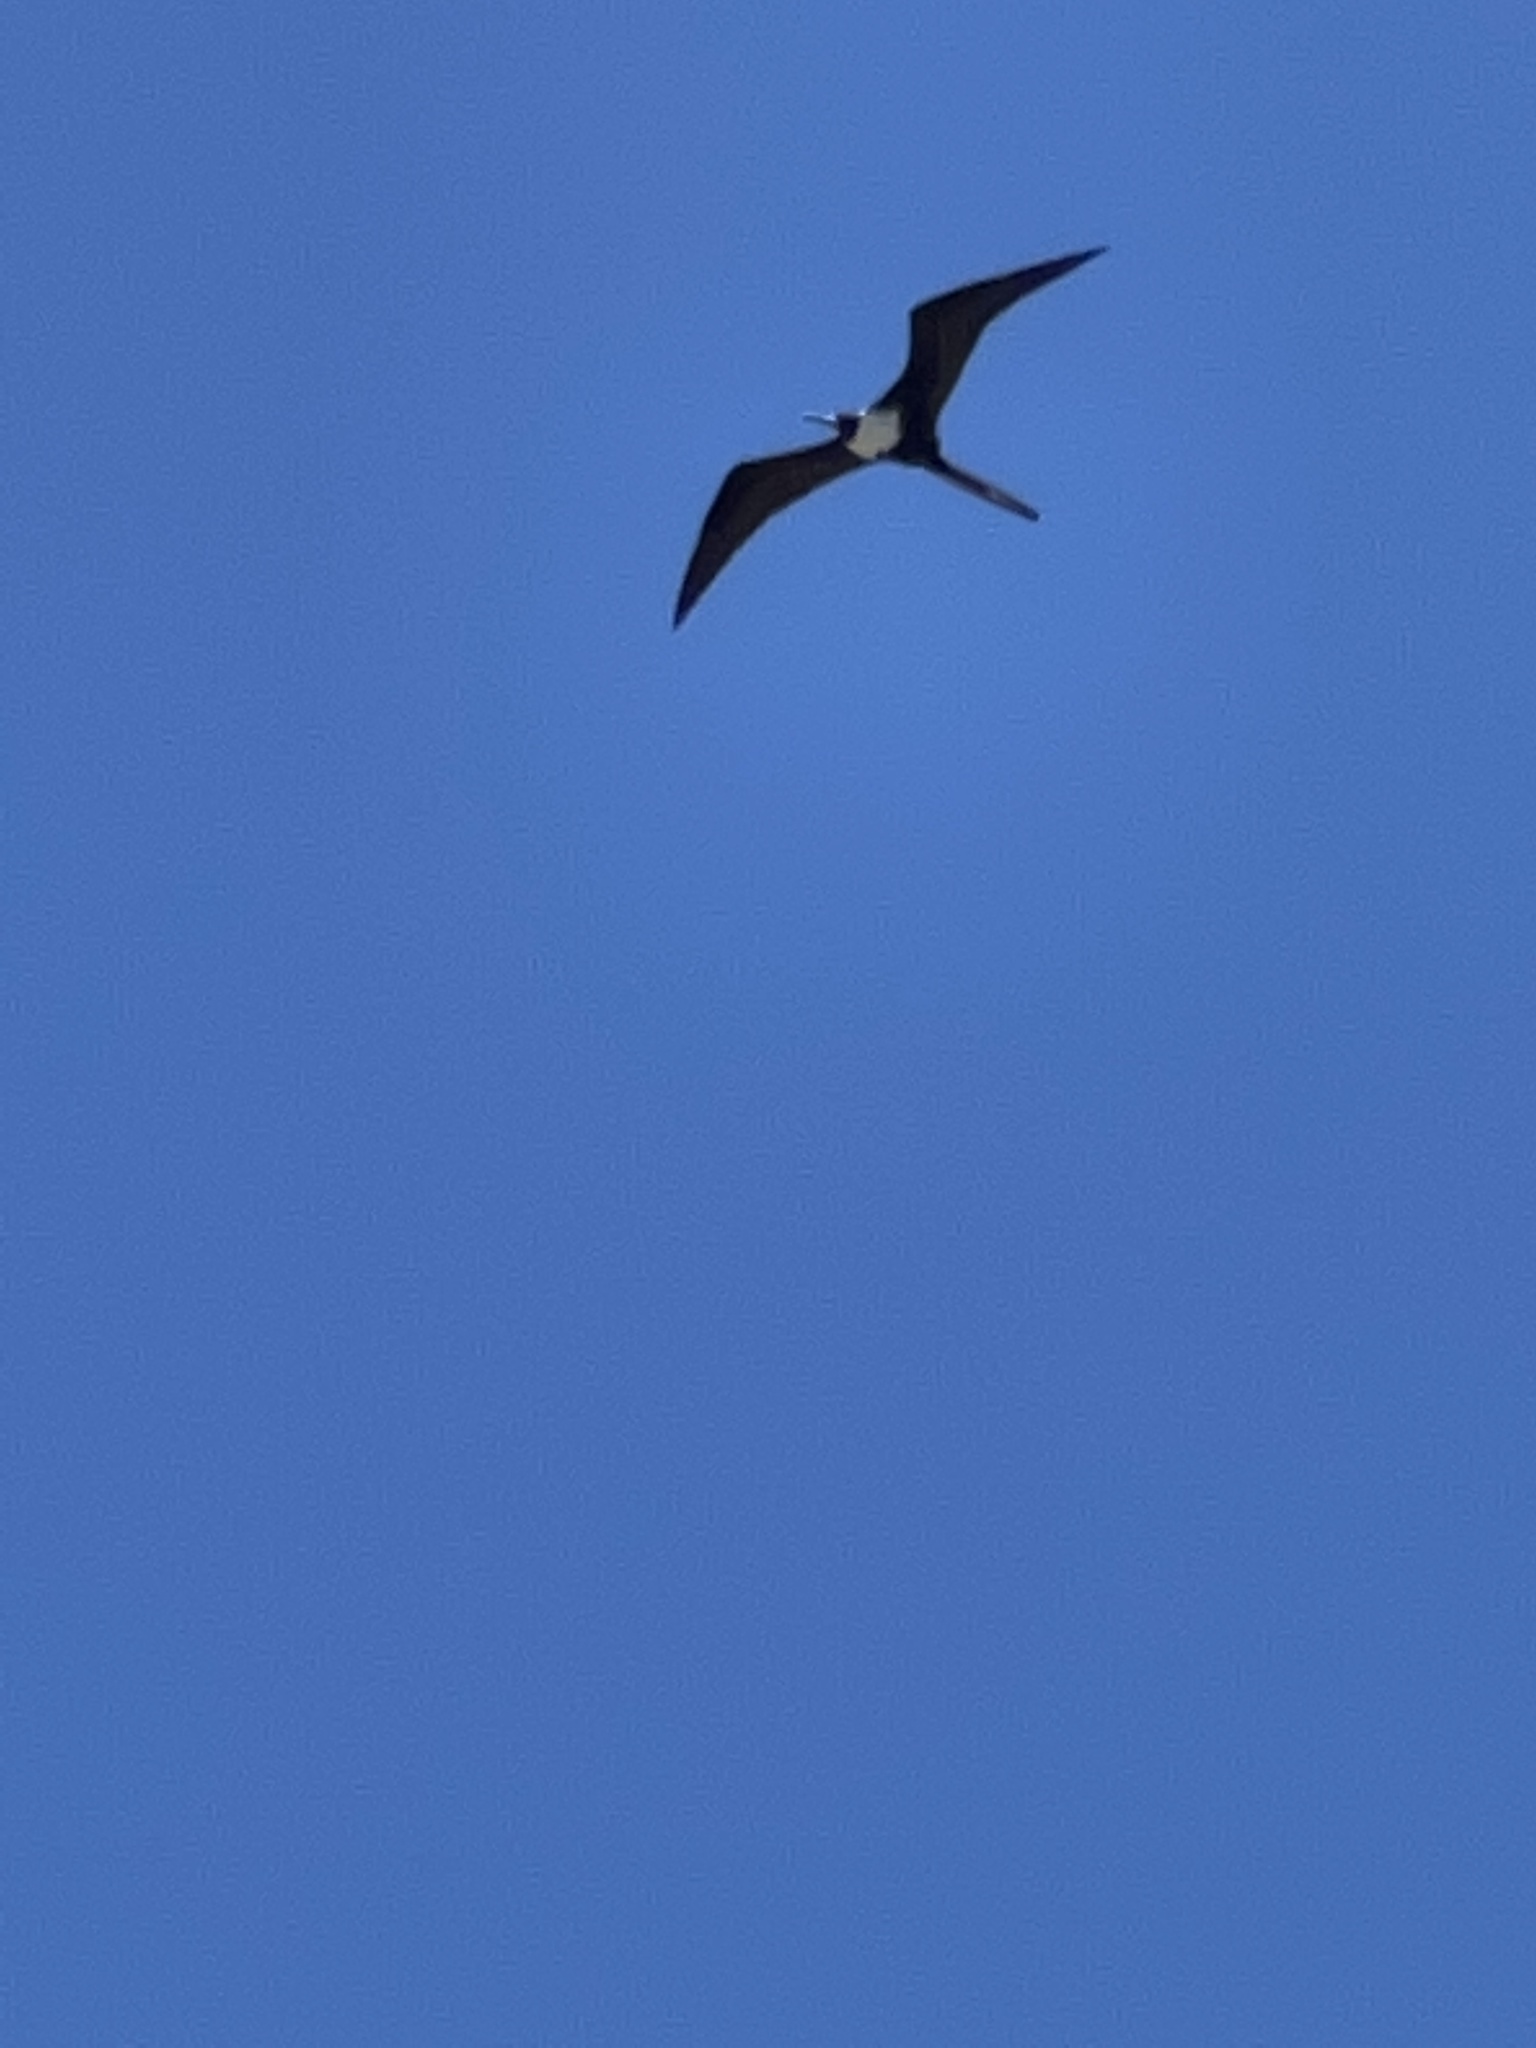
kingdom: Animalia
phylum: Chordata
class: Aves
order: Suliformes
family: Fregatidae
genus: Fregata
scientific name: Fregata magnificens
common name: Magnificent frigatebird
